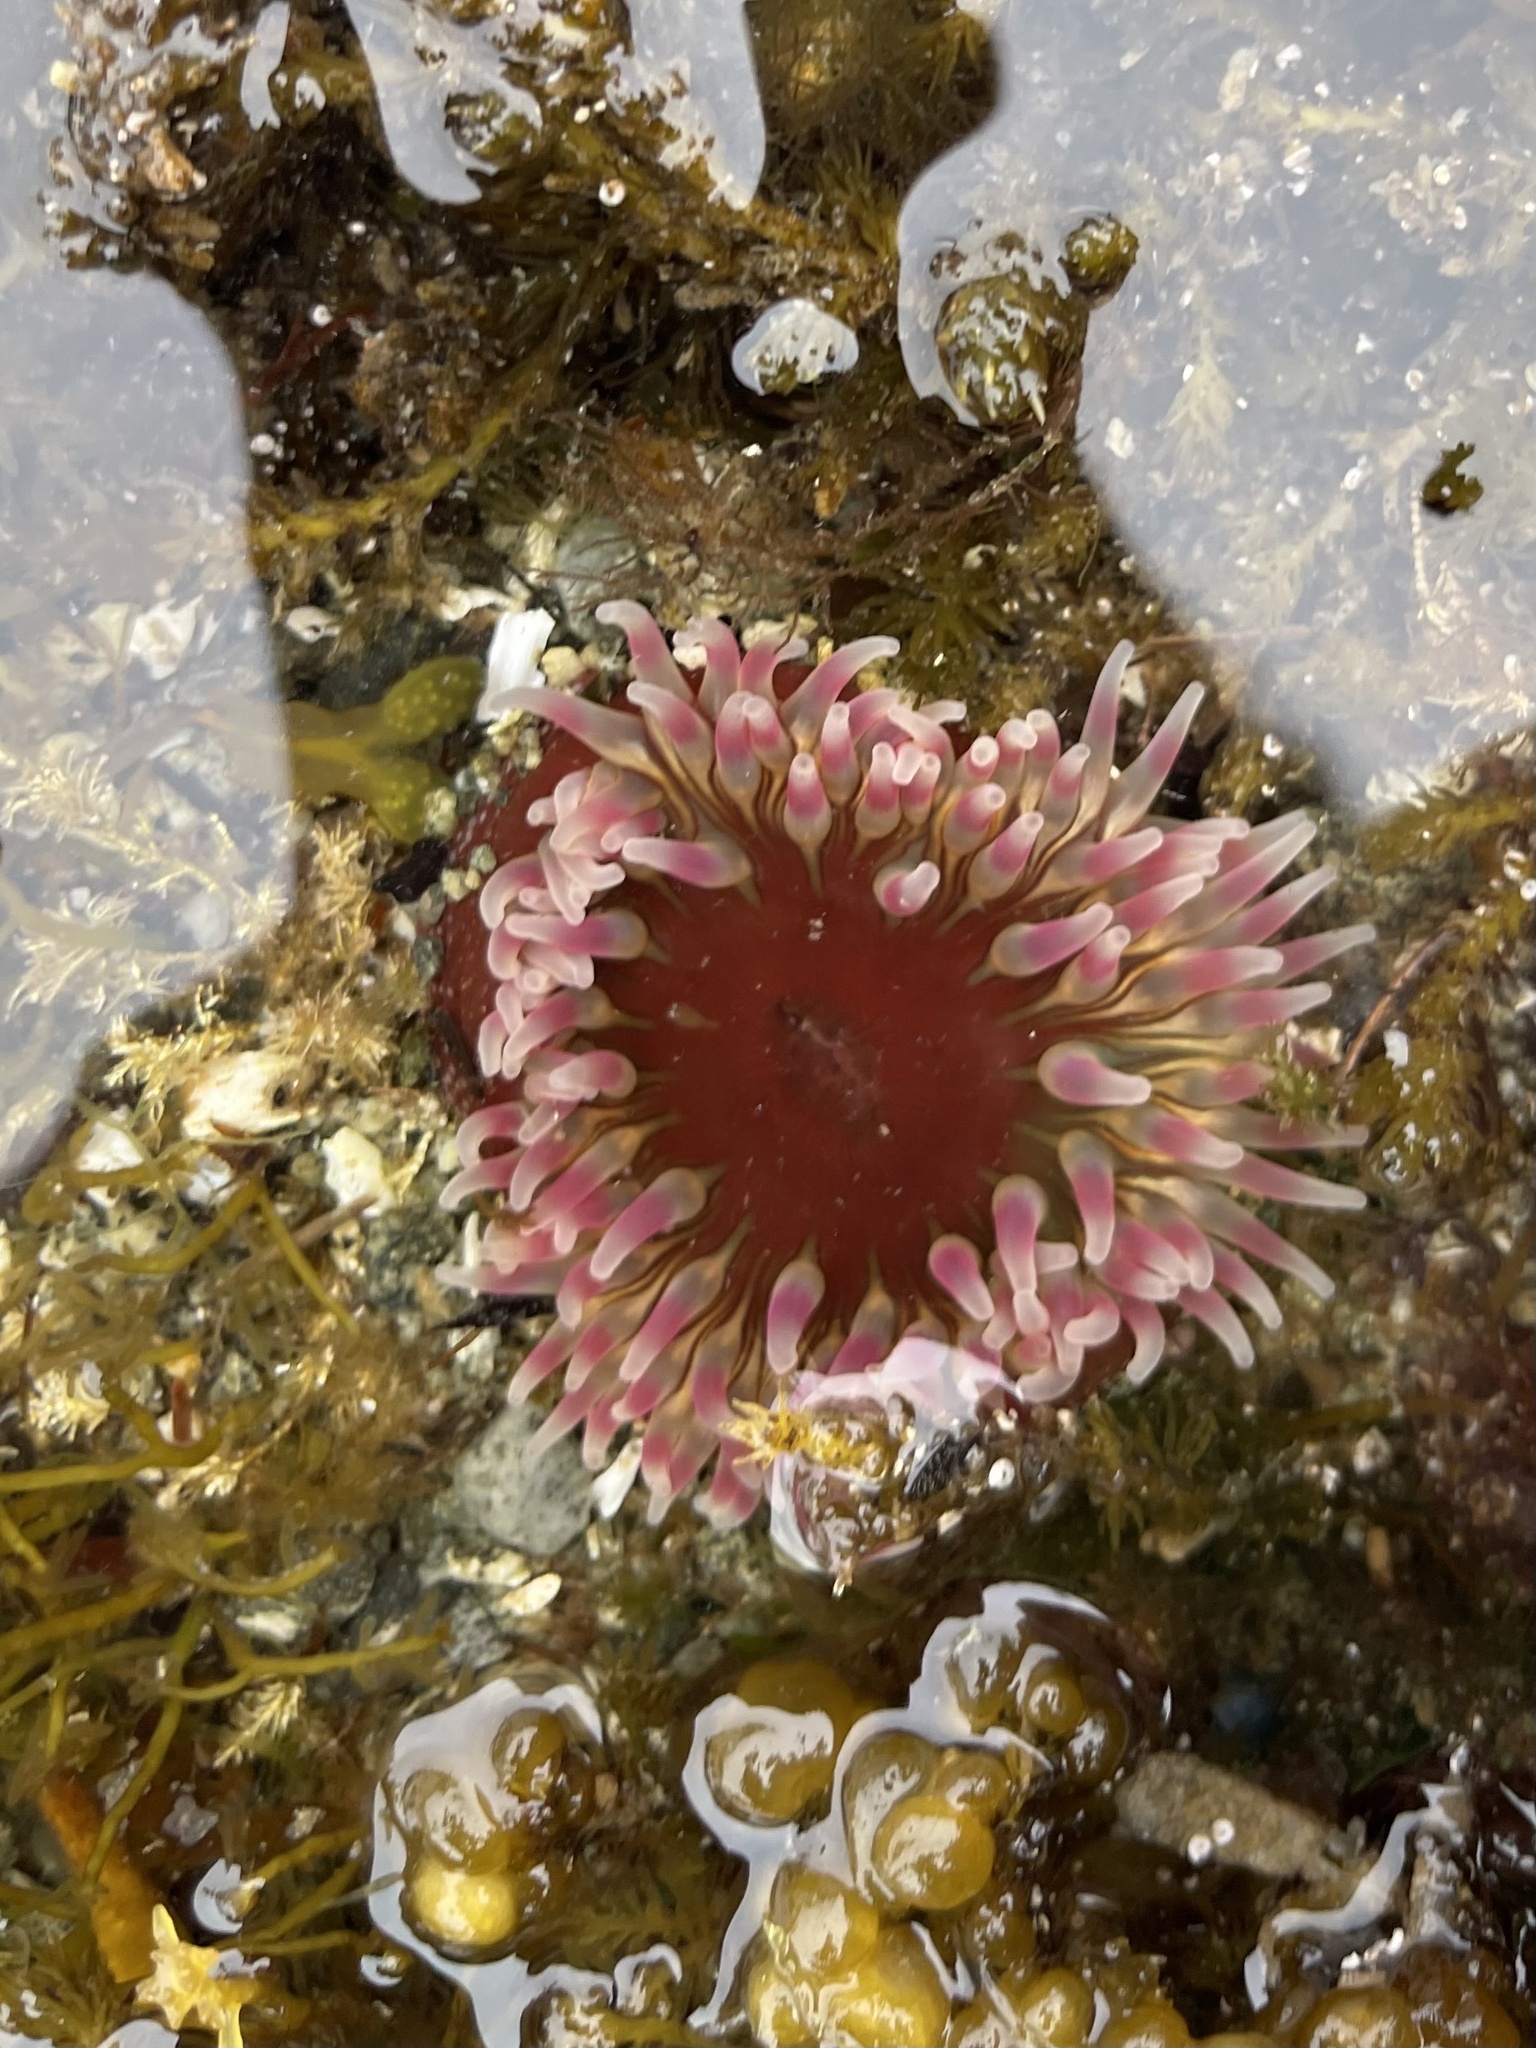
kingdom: Animalia
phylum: Cnidaria
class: Anthozoa
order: Actiniaria
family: Actiniidae
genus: Urticina
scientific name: Urticina clandestina
